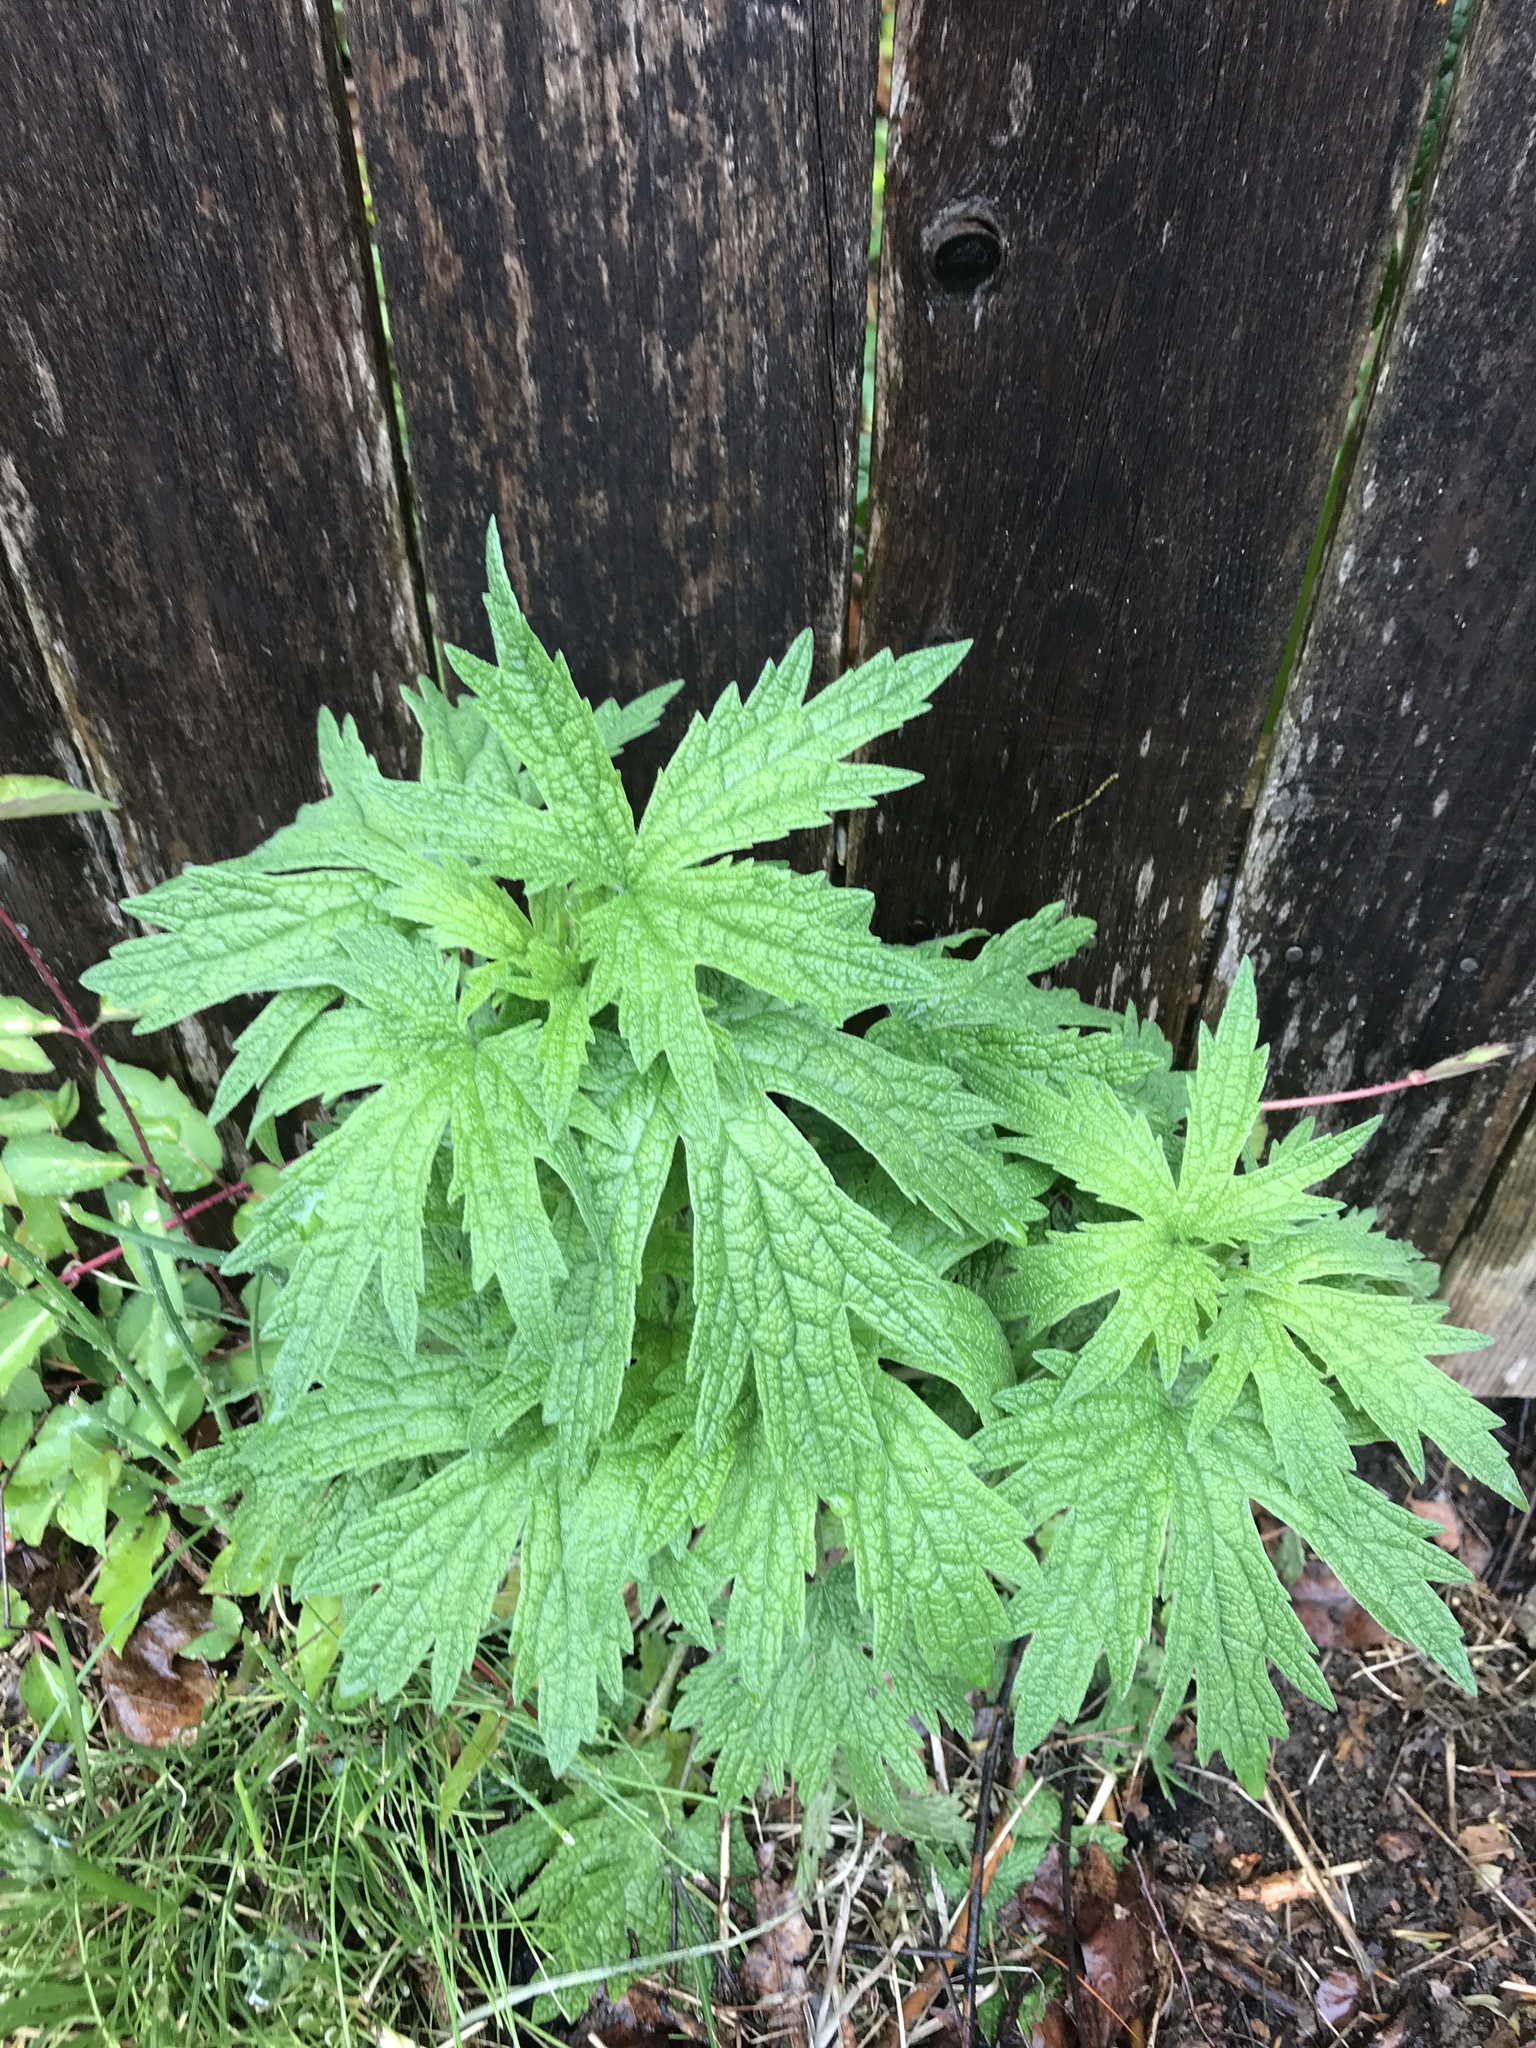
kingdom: Plantae
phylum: Tracheophyta
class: Magnoliopsida
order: Lamiales
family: Lamiaceae
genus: Leonurus
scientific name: Leonurus cardiaca
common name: Motherwort
